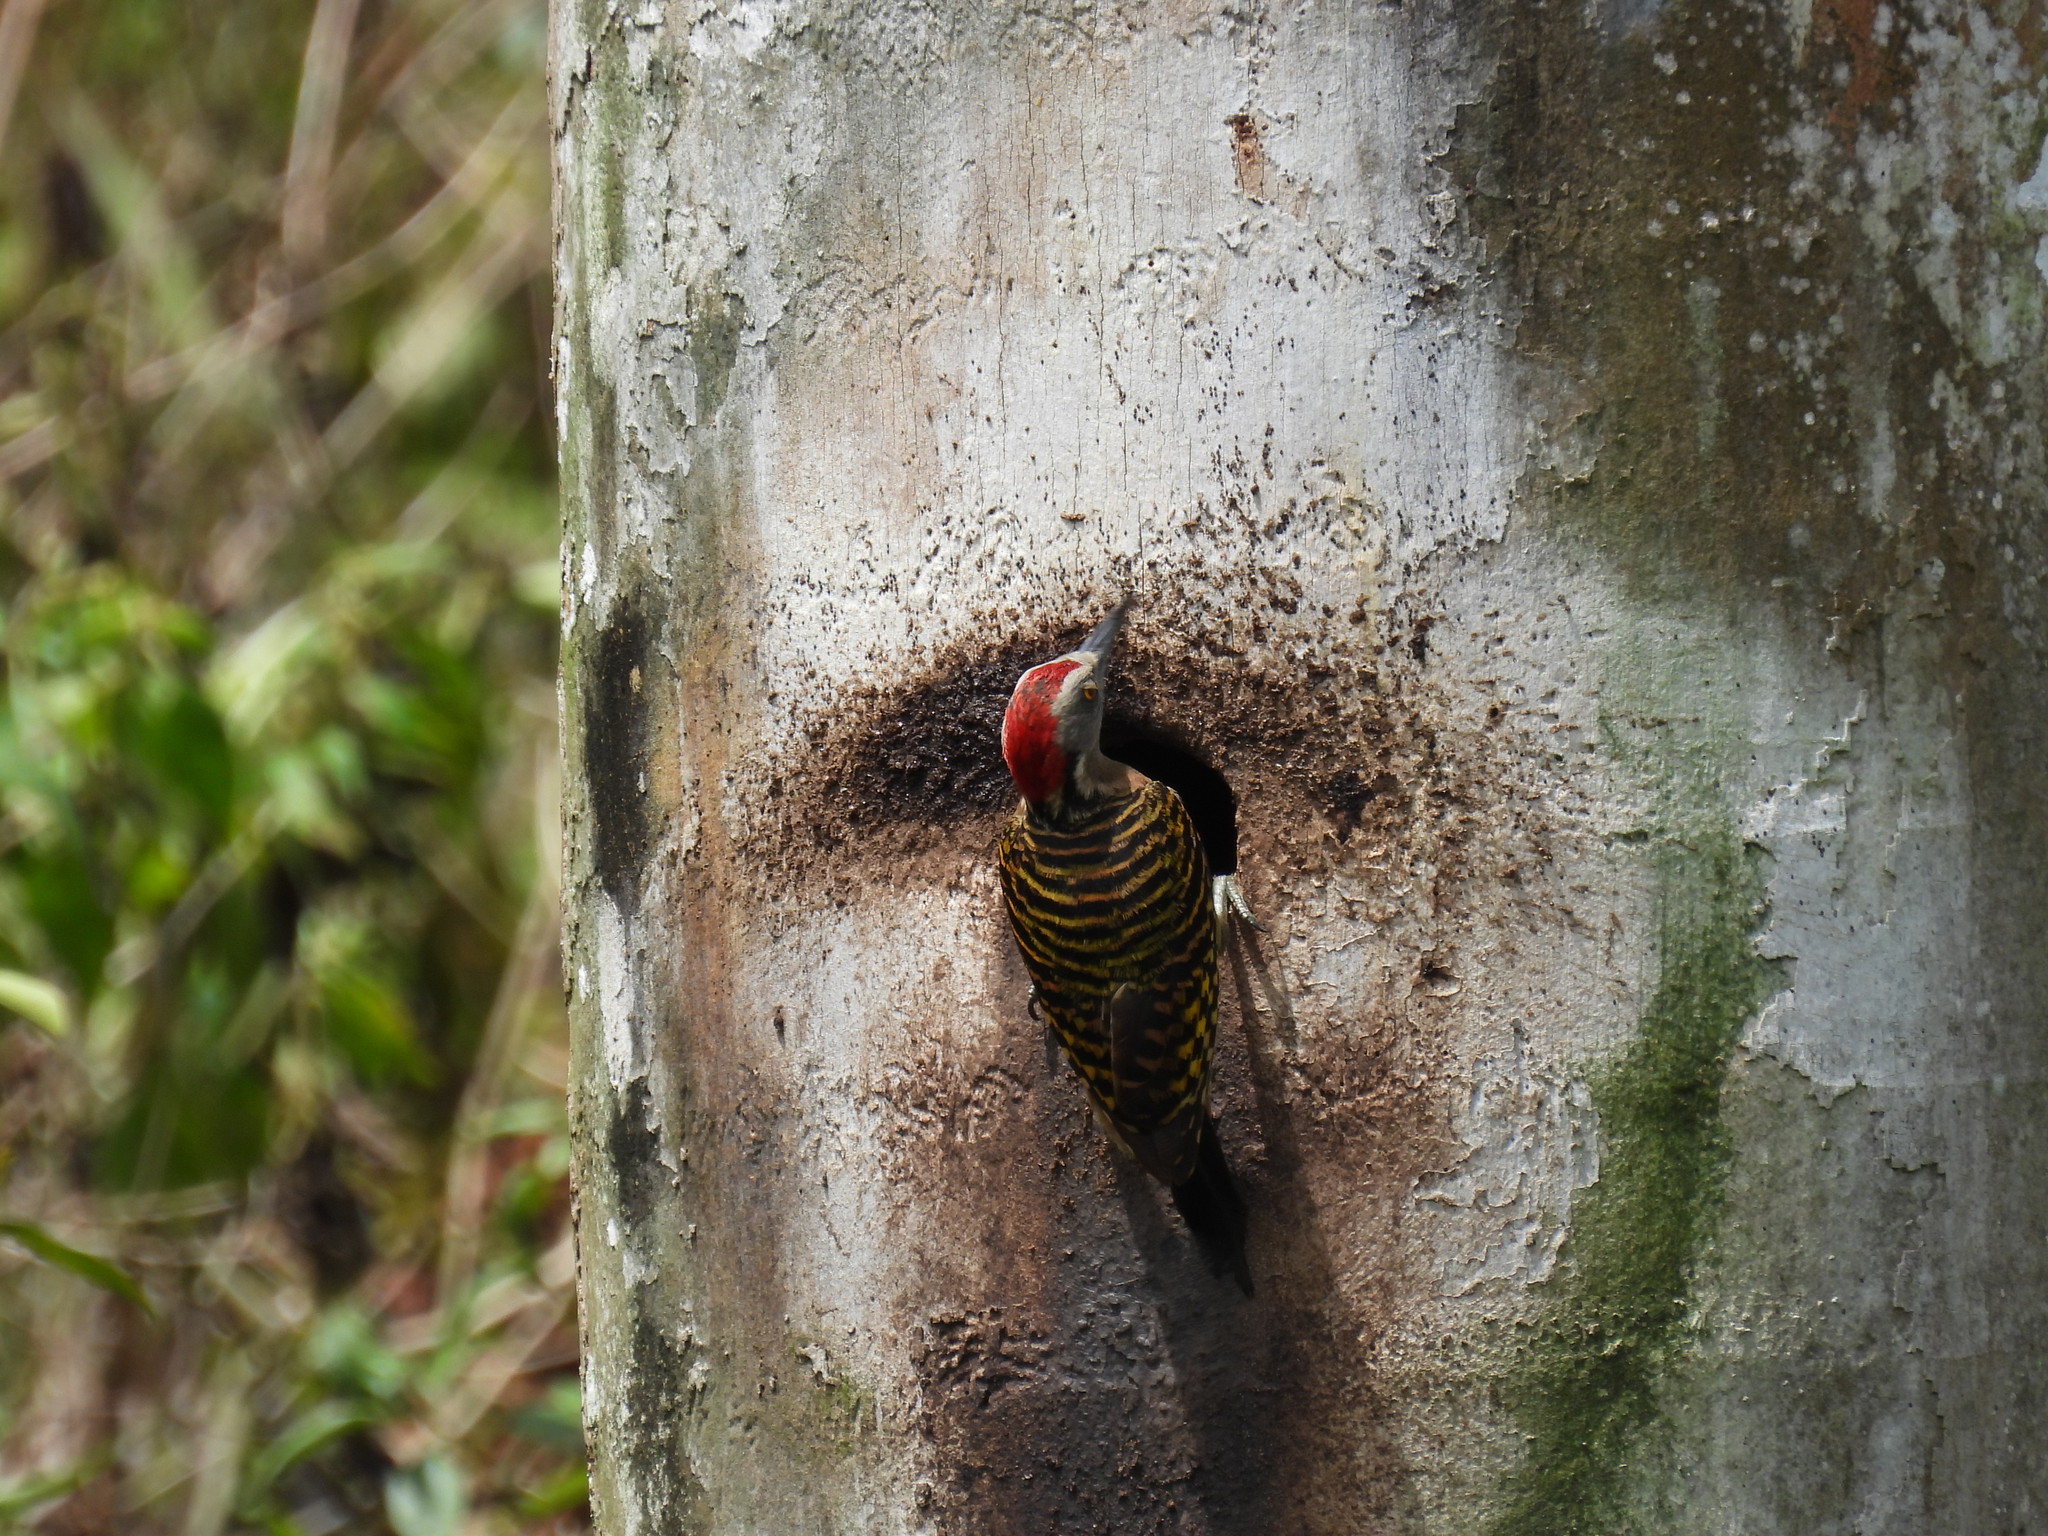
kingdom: Animalia
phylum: Chordata
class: Aves
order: Piciformes
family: Picidae
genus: Melanerpes
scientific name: Melanerpes striatus
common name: Hispaniolan woodpecker
